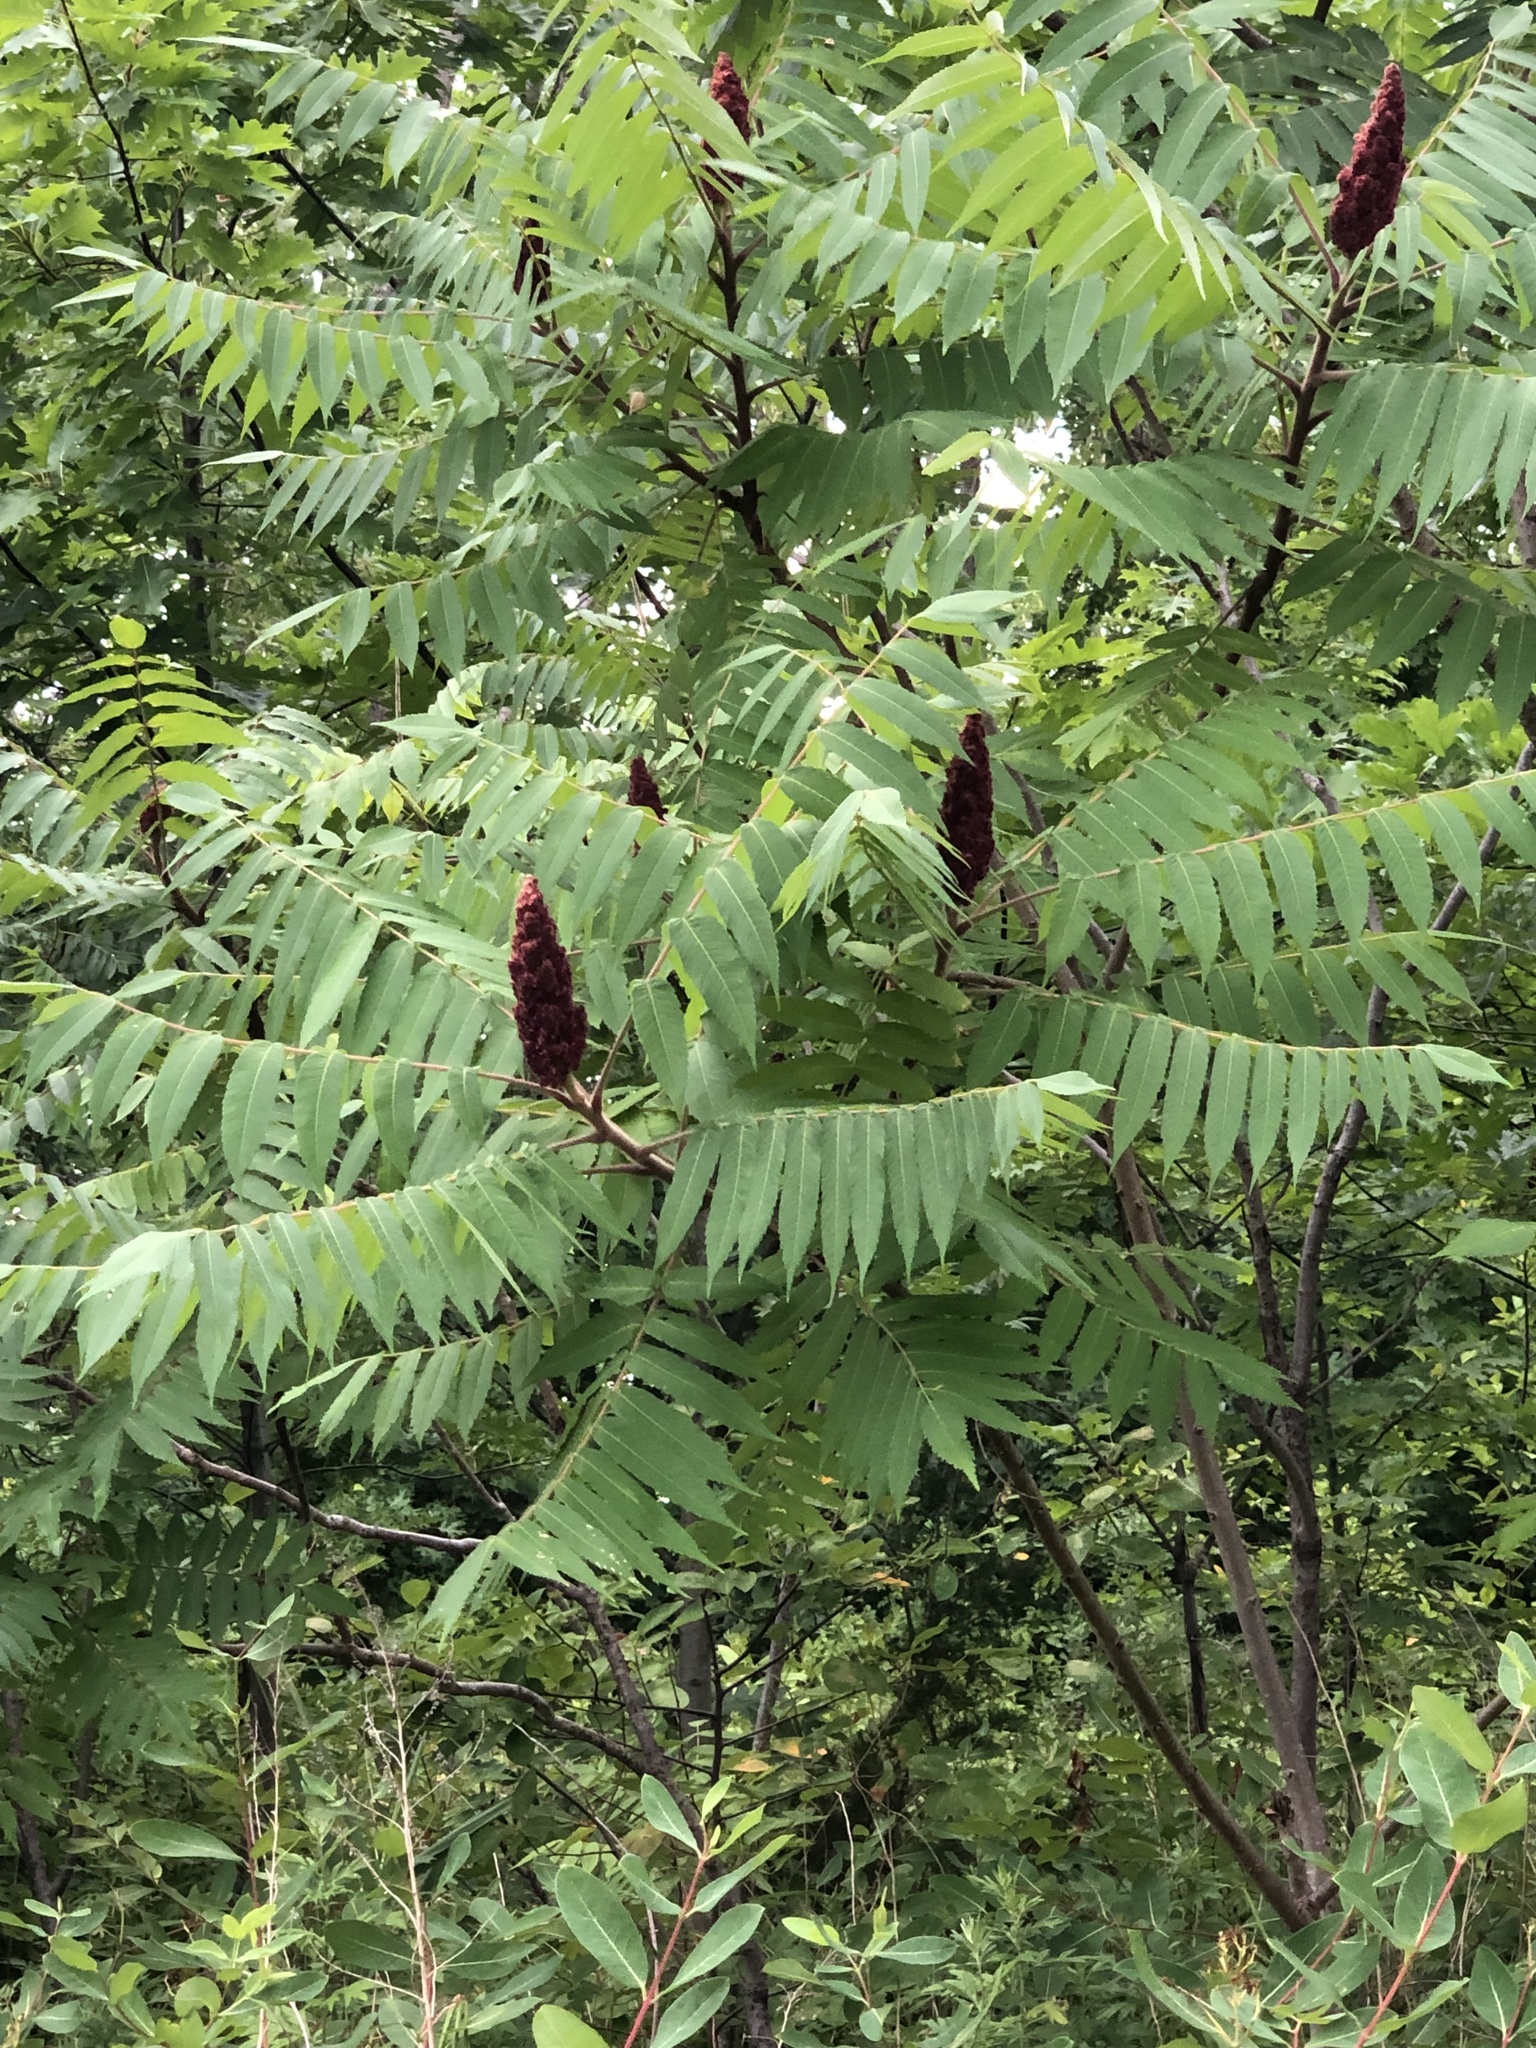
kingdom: Plantae
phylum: Tracheophyta
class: Magnoliopsida
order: Sapindales
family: Anacardiaceae
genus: Rhus
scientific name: Rhus typhina
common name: Staghorn sumac
